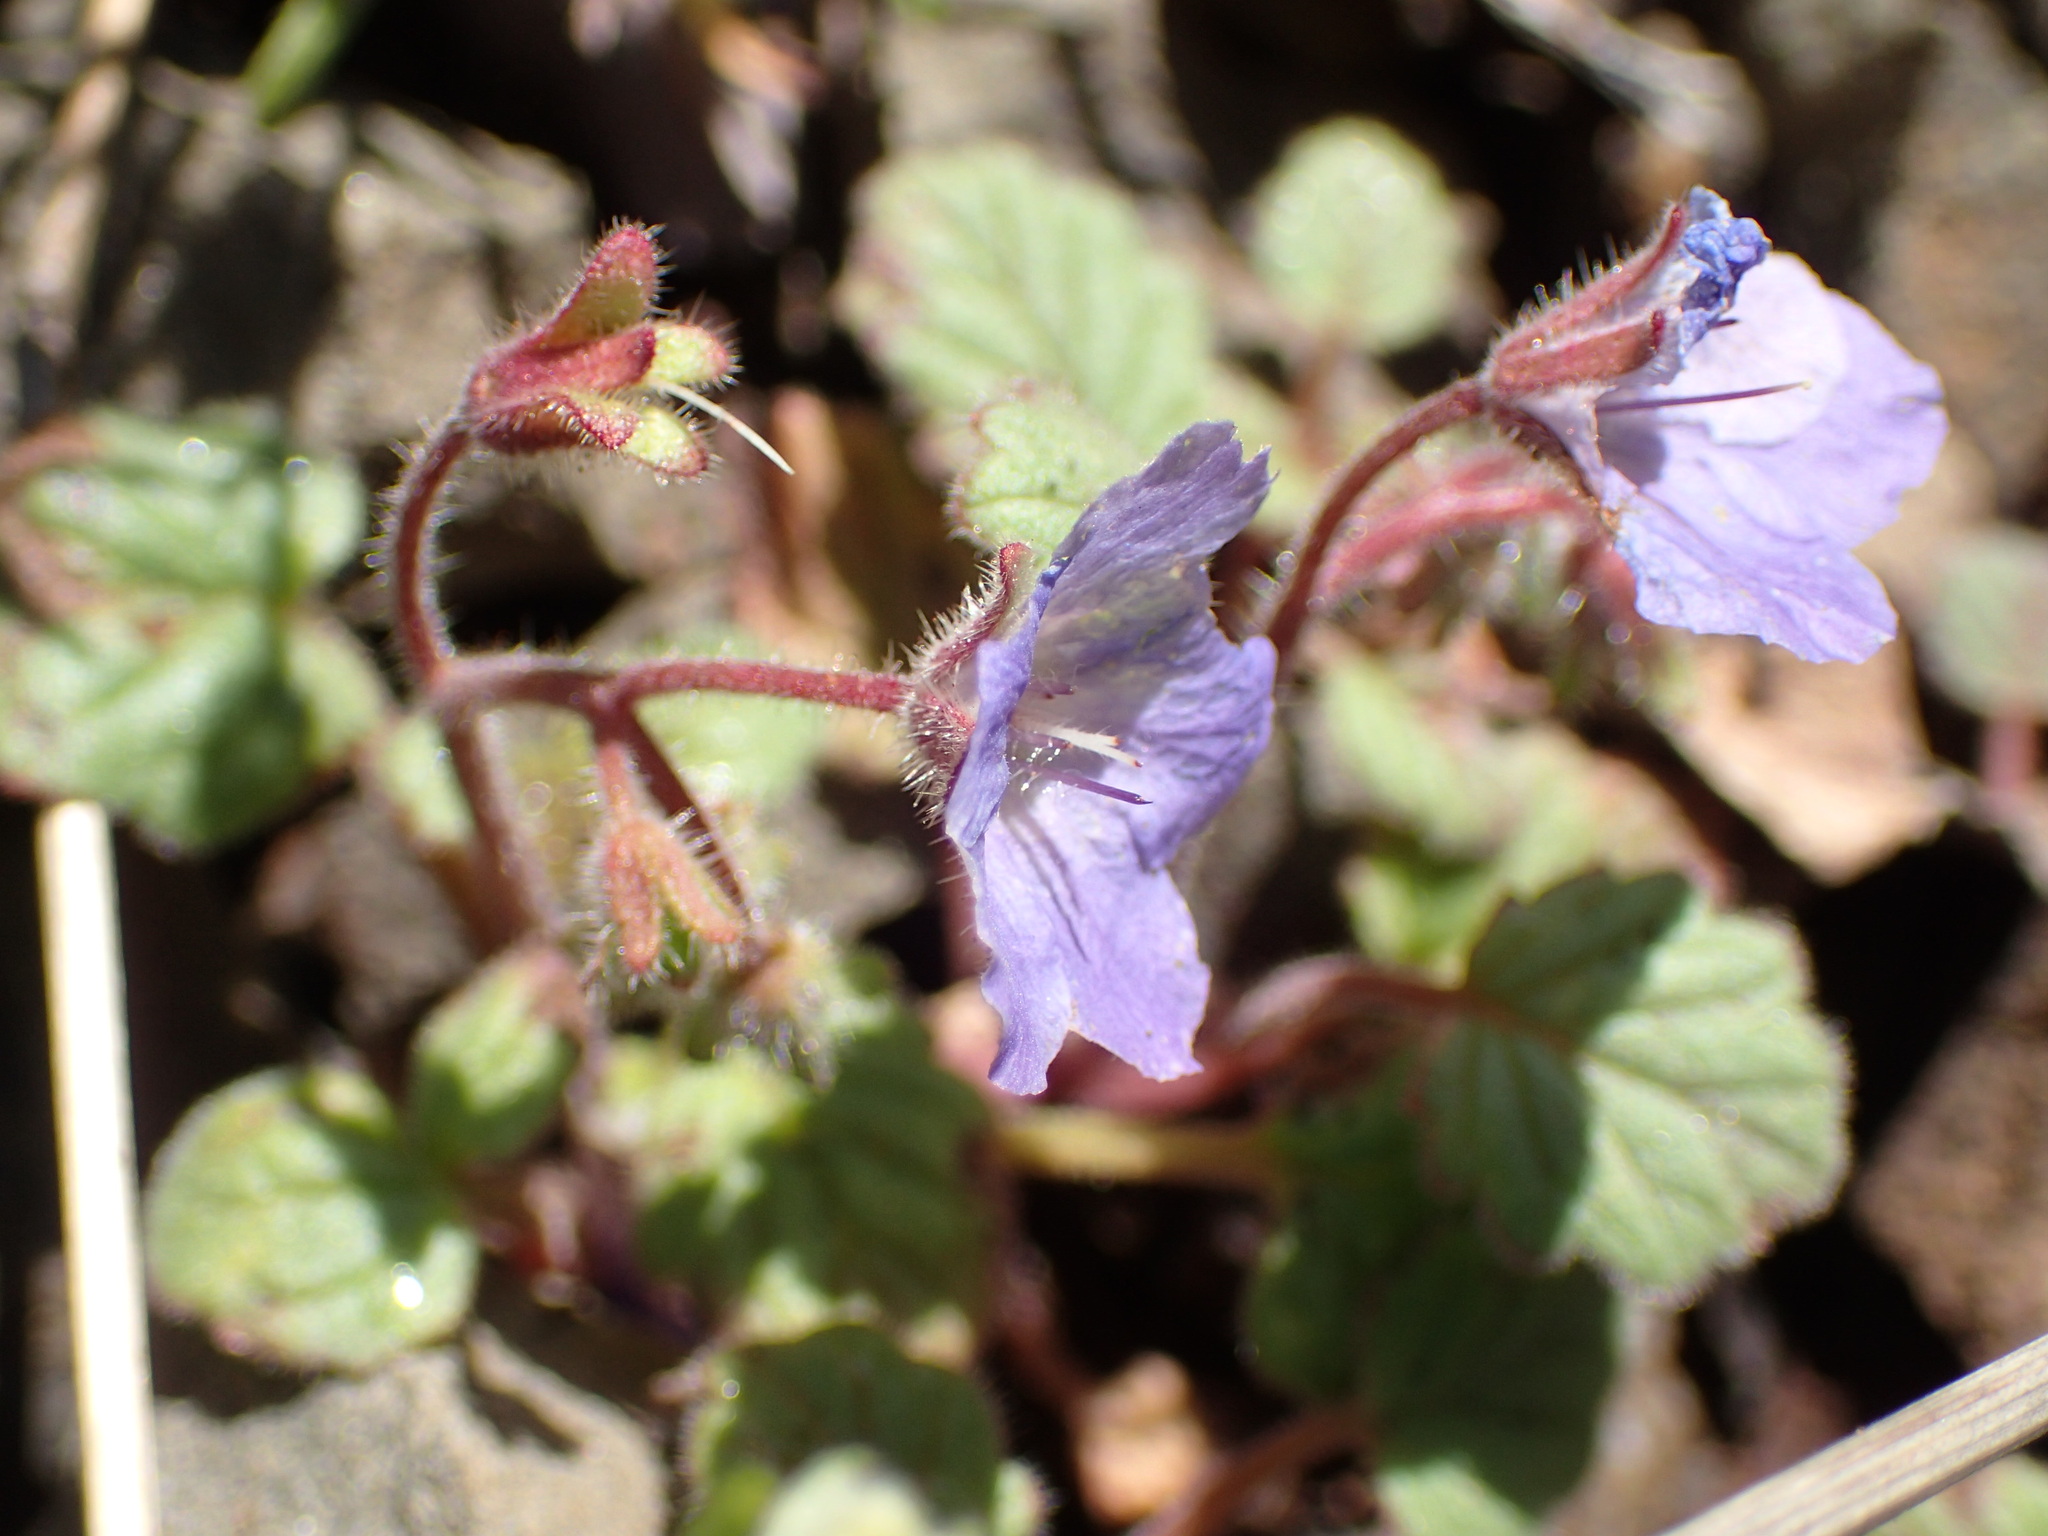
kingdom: Plantae
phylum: Tracheophyta
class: Magnoliopsida
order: Boraginales
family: Hydrophyllaceae
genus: Phacelia
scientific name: Phacelia longipes
